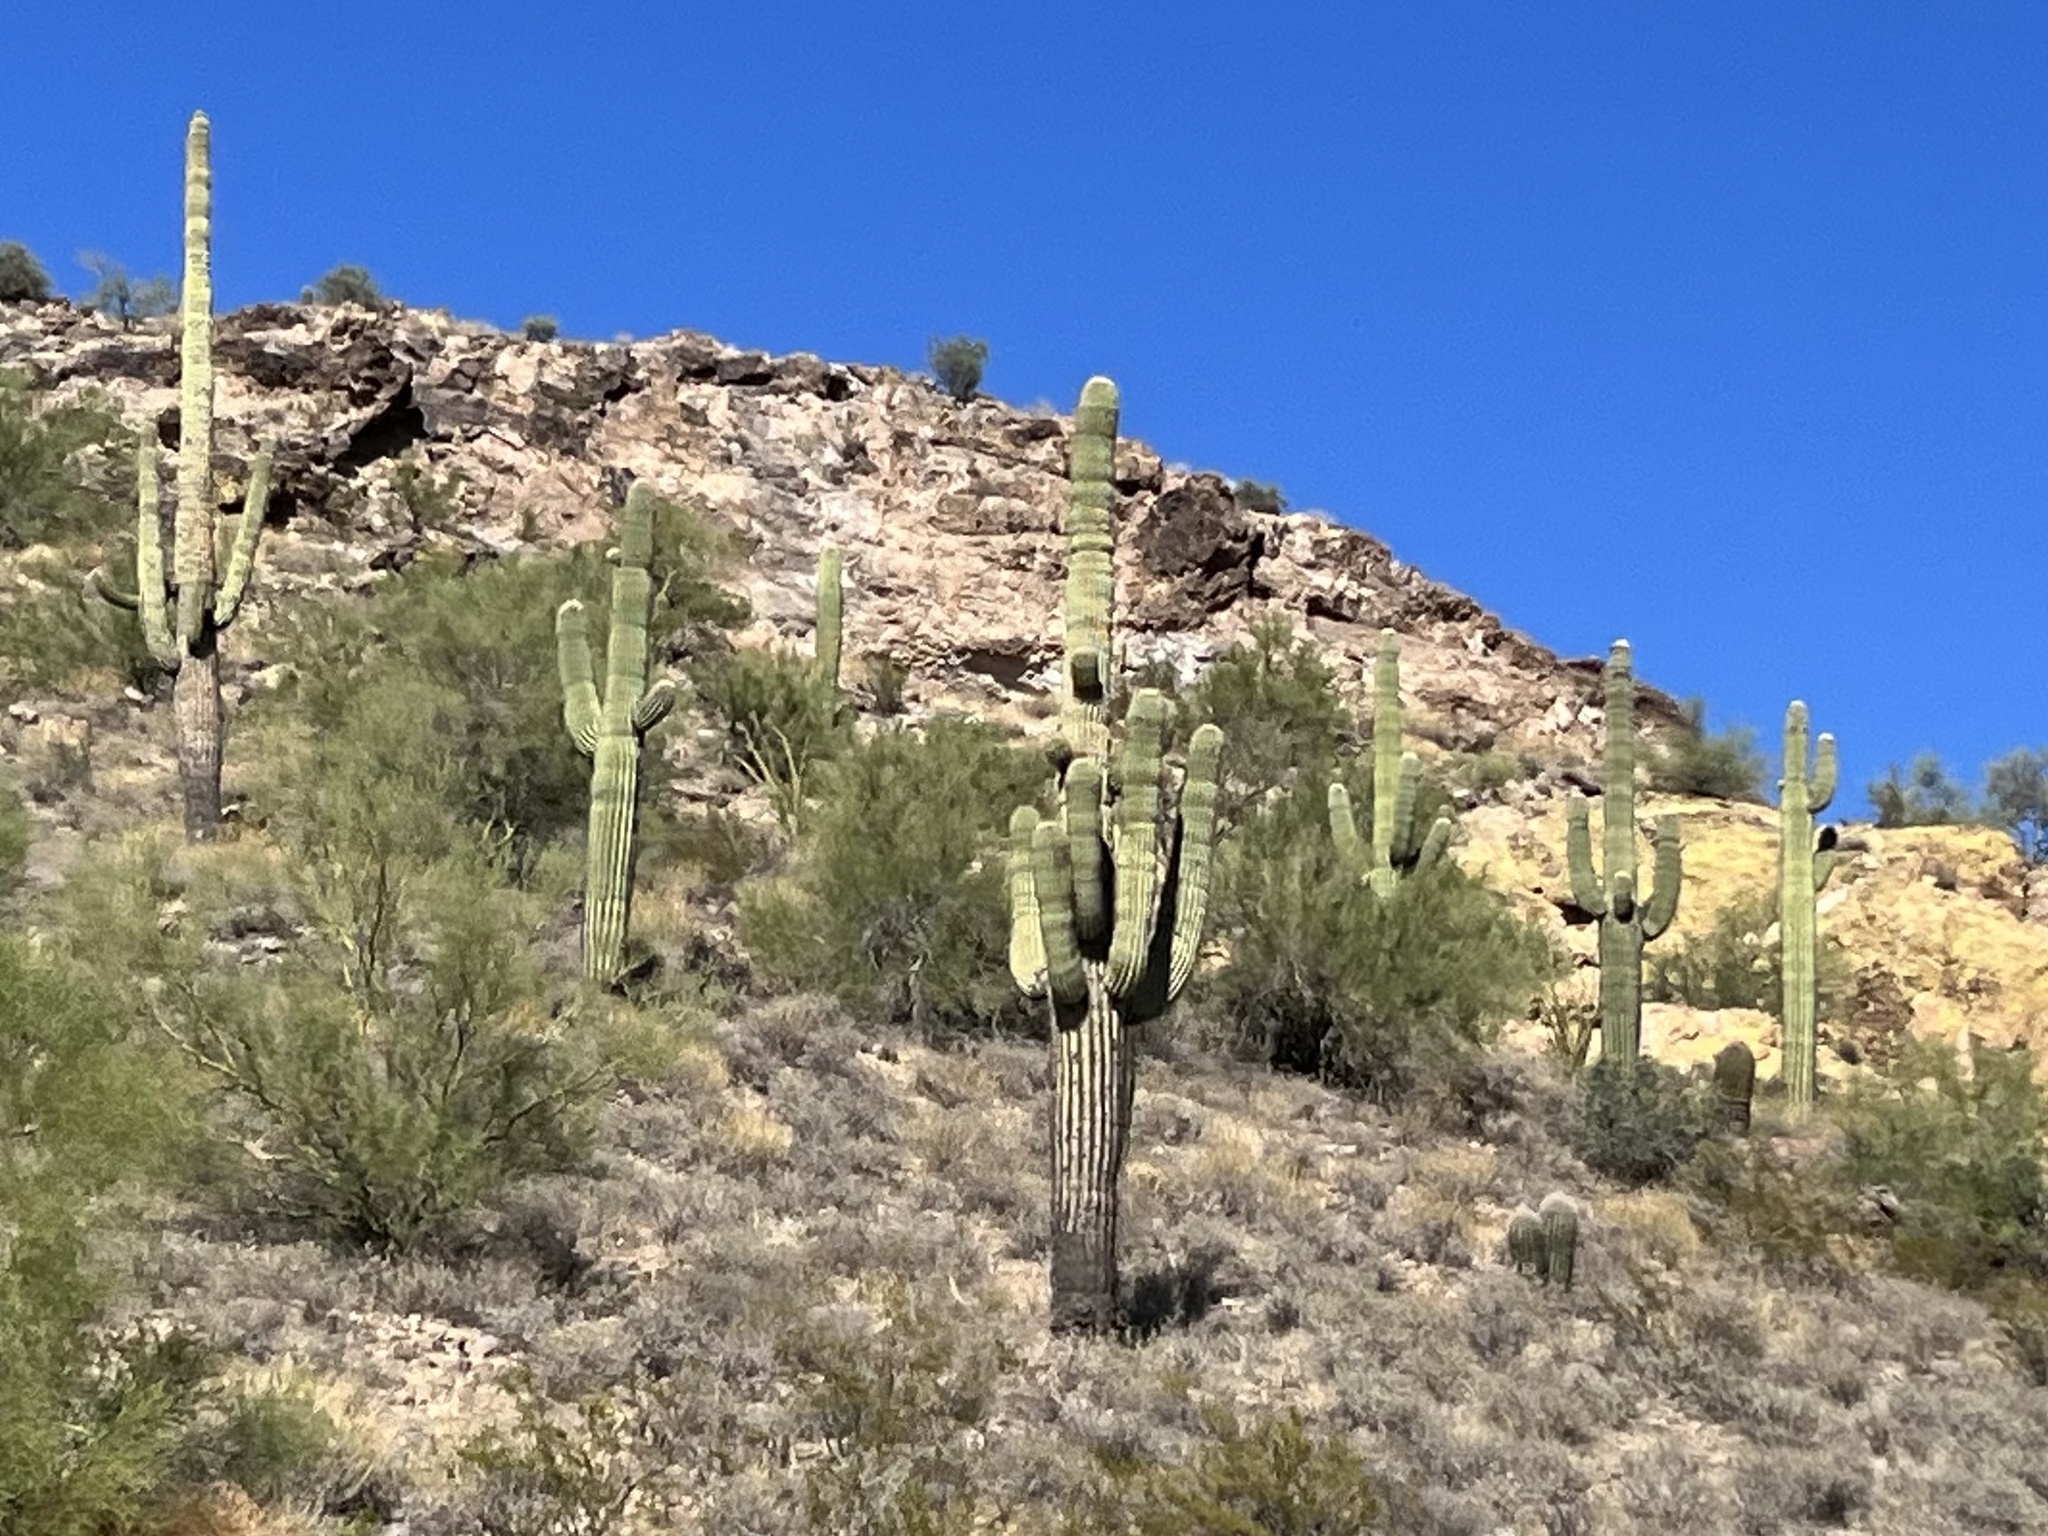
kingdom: Plantae
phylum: Tracheophyta
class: Magnoliopsida
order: Caryophyllales
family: Cactaceae
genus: Carnegiea
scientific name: Carnegiea gigantea
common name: Saguaro
